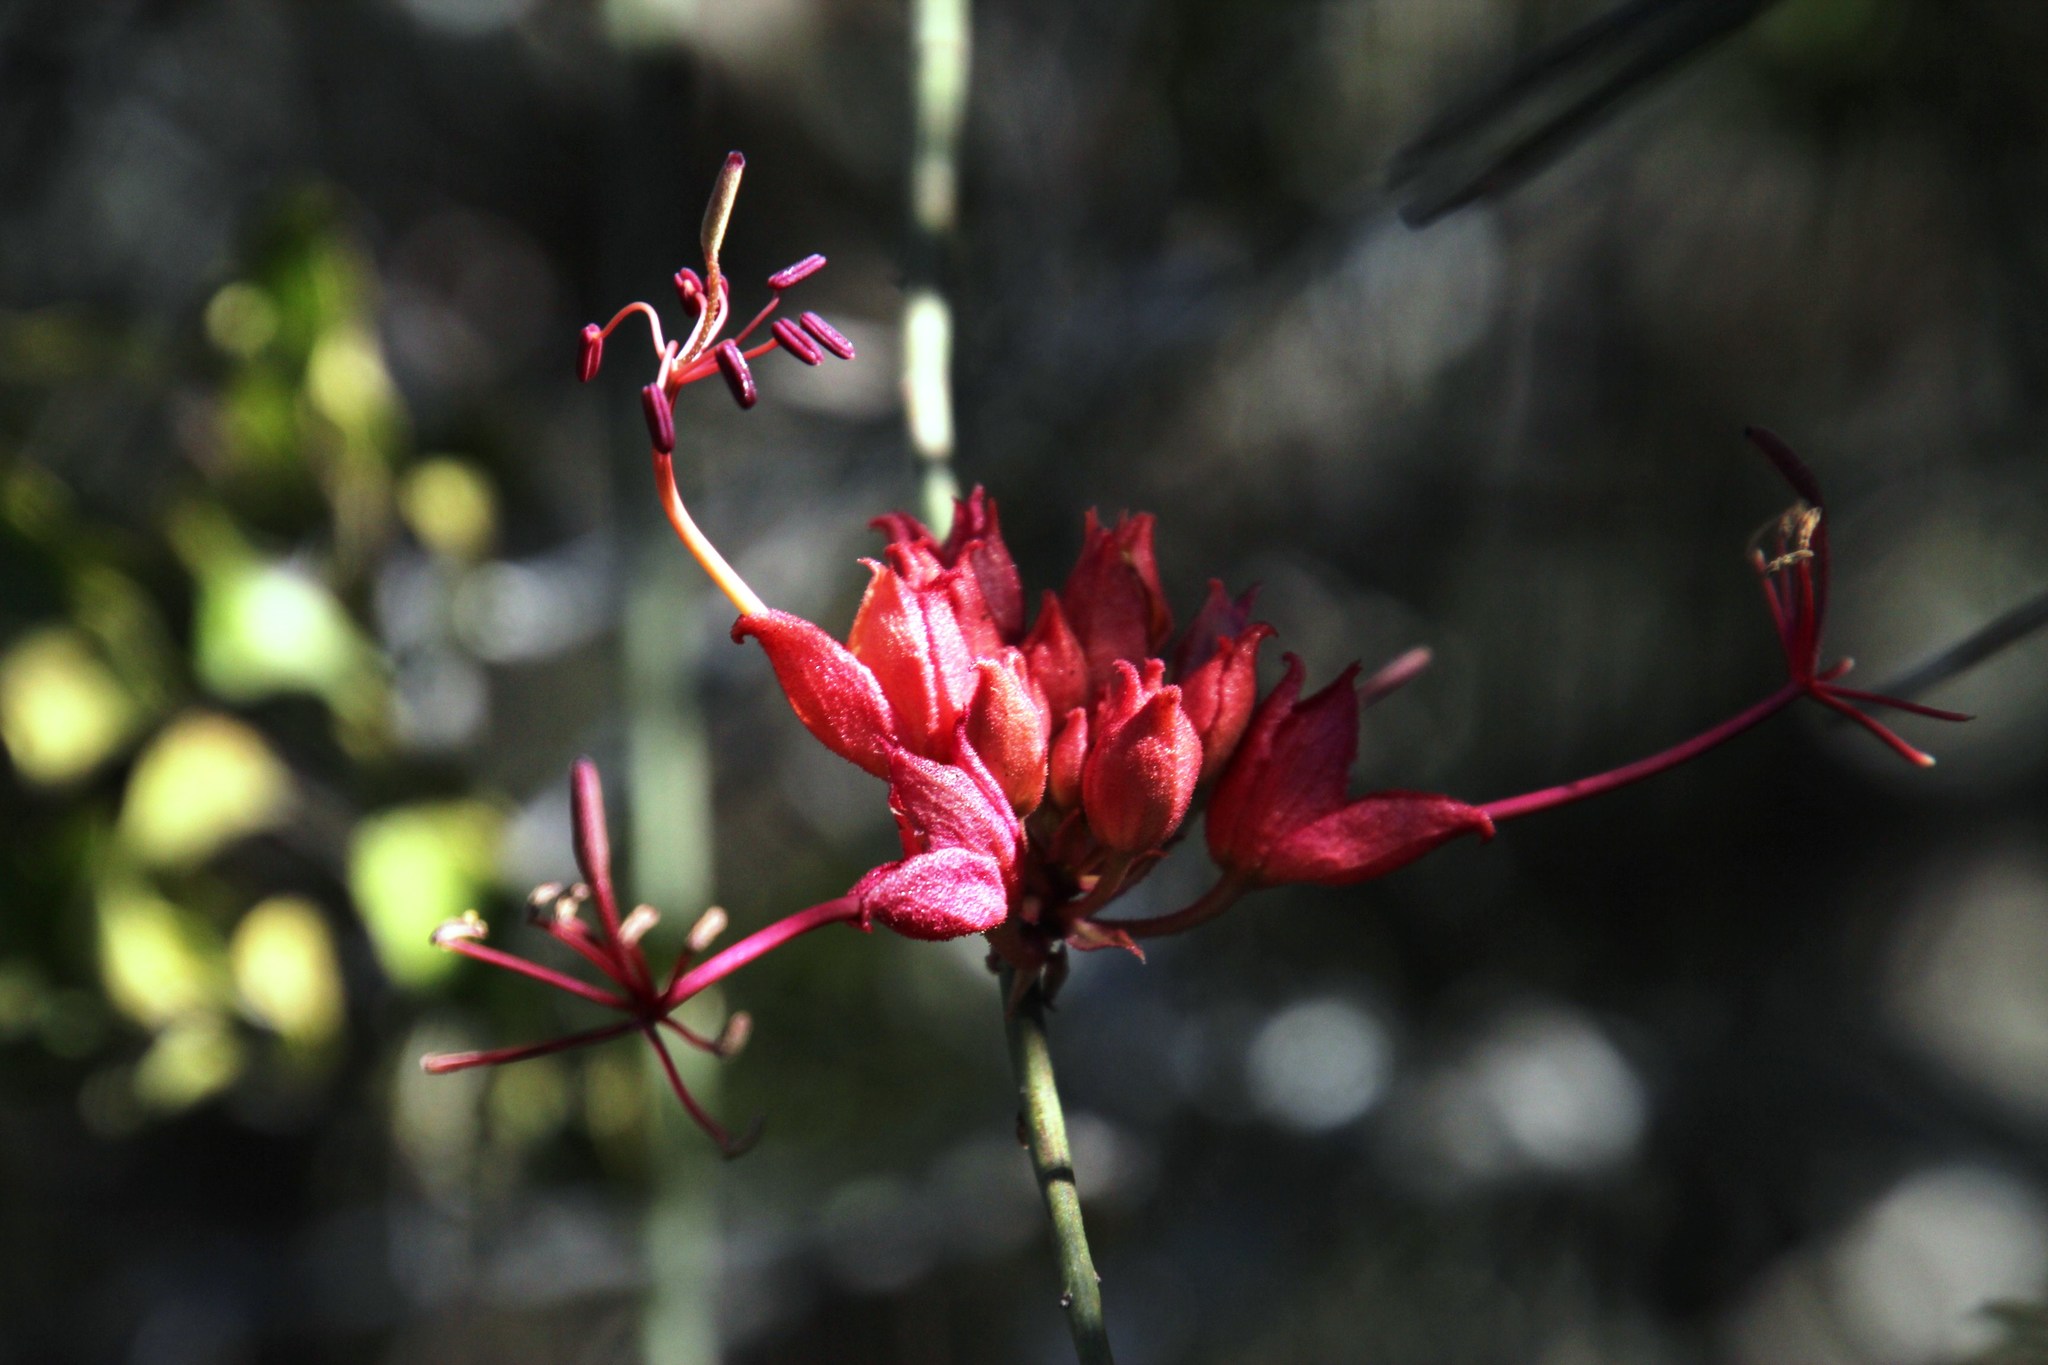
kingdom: Plantae
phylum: Tracheophyta
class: Magnoliopsida
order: Brassicales
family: Capparaceae
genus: Cadaba
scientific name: Cadaba aphylla
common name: Black storm
